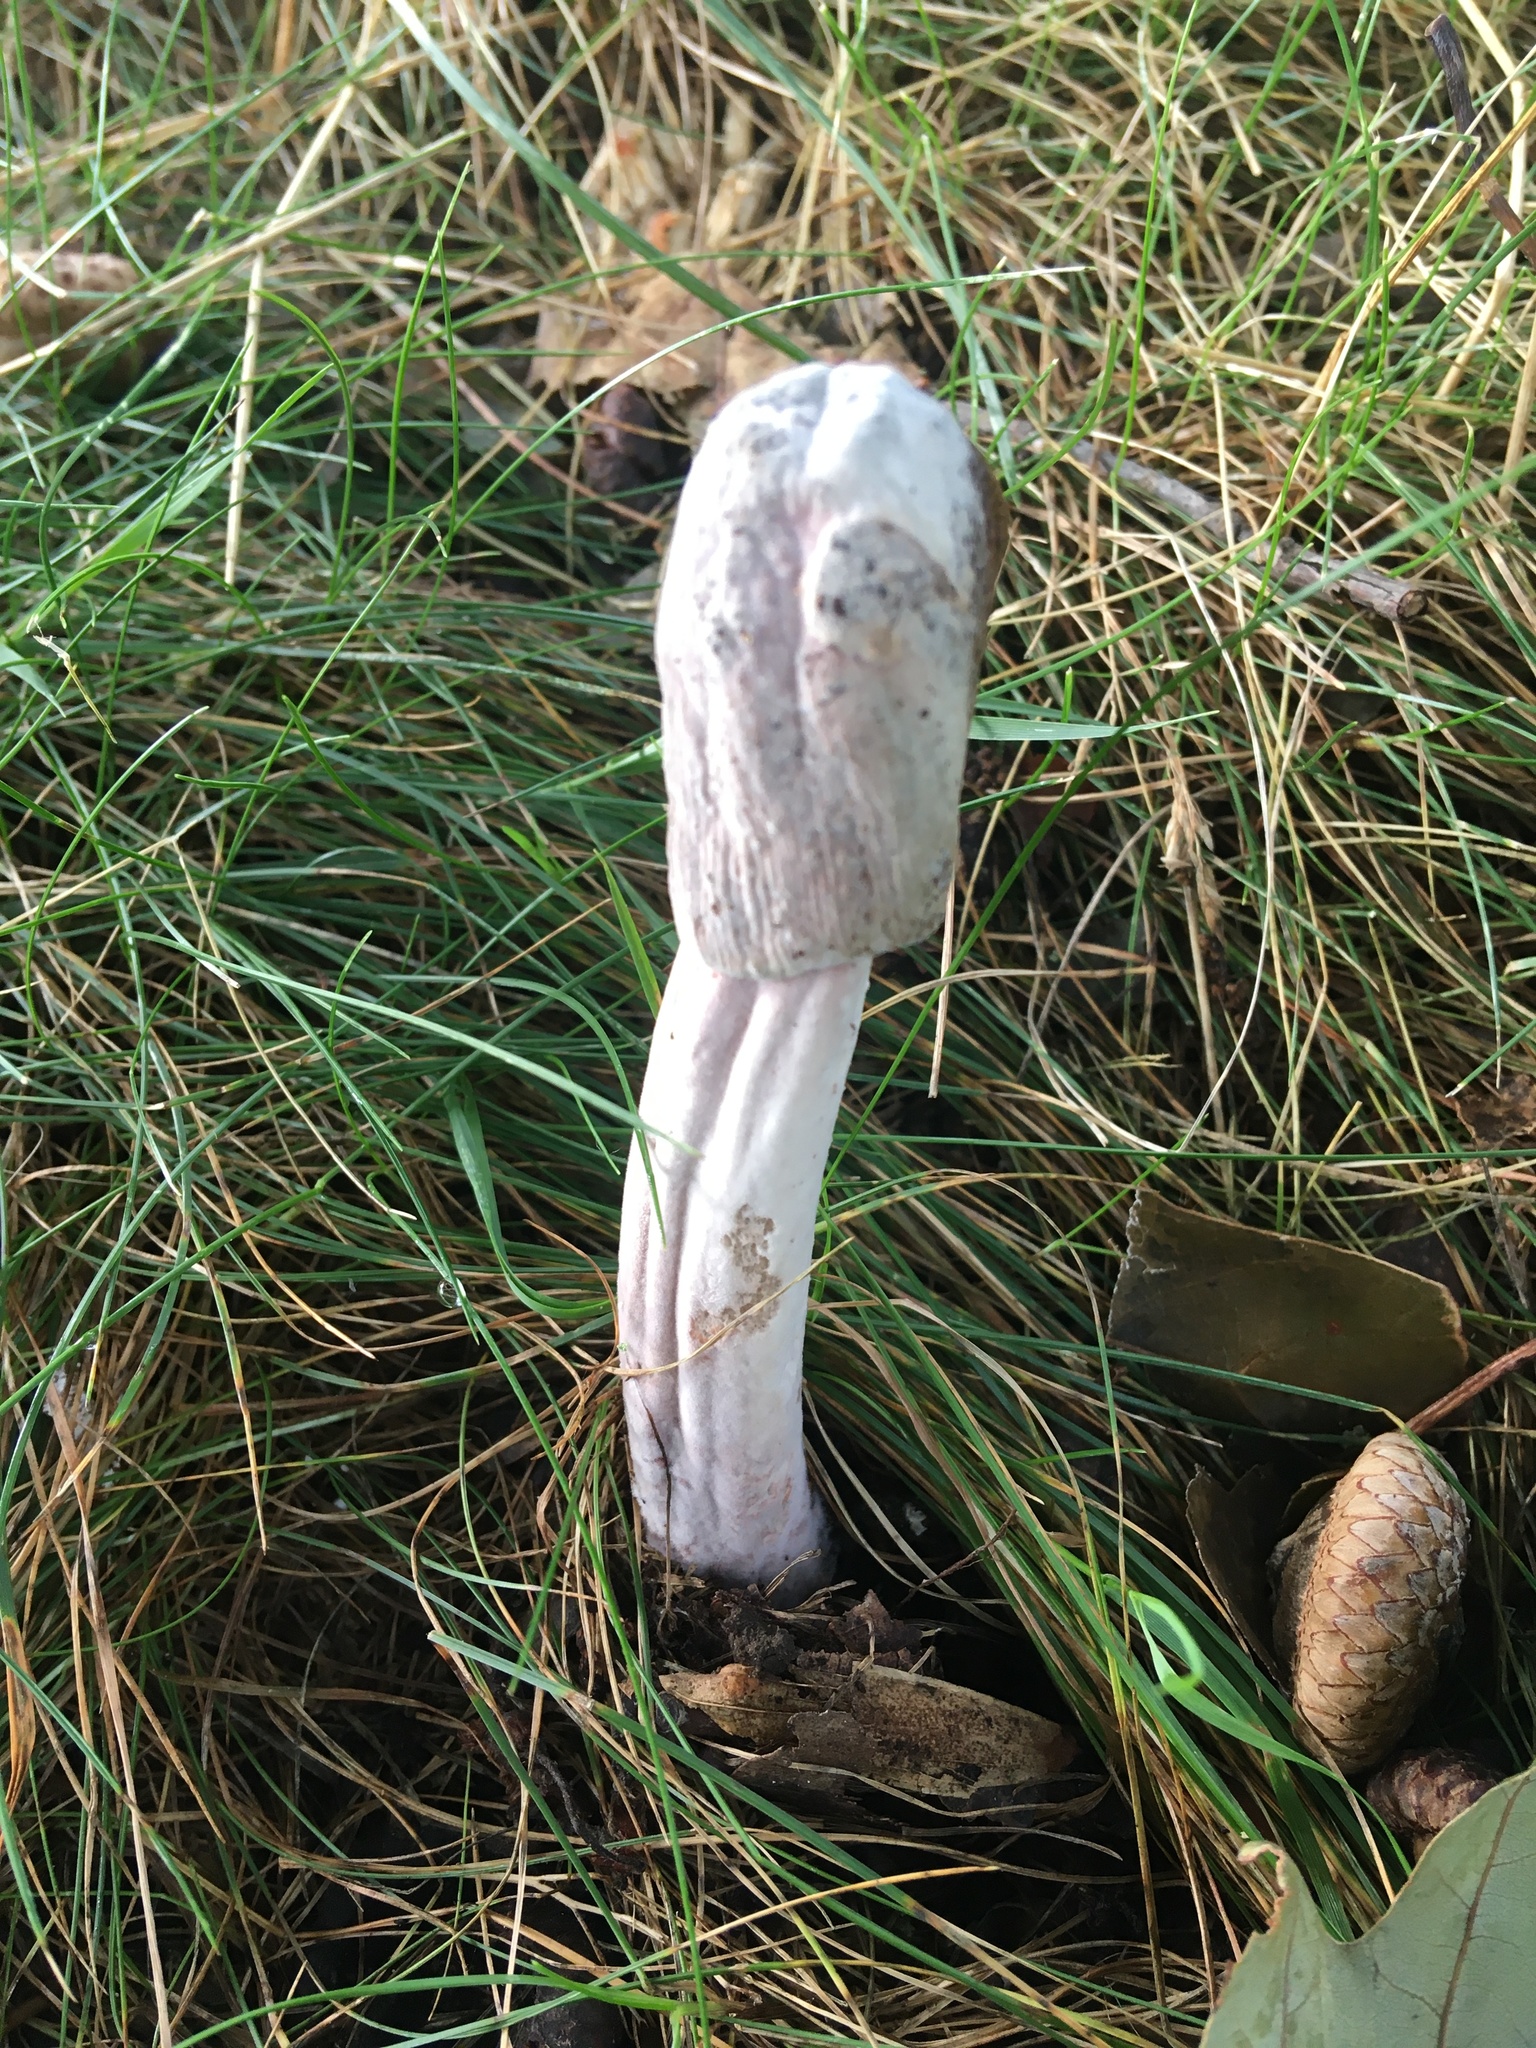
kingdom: Fungi
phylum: Ascomycota
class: Sordariomycetes
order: Hypocreales
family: Hypocreaceae
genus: Hypomyces
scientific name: Hypomyces hyalinus
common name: Amanita mold
